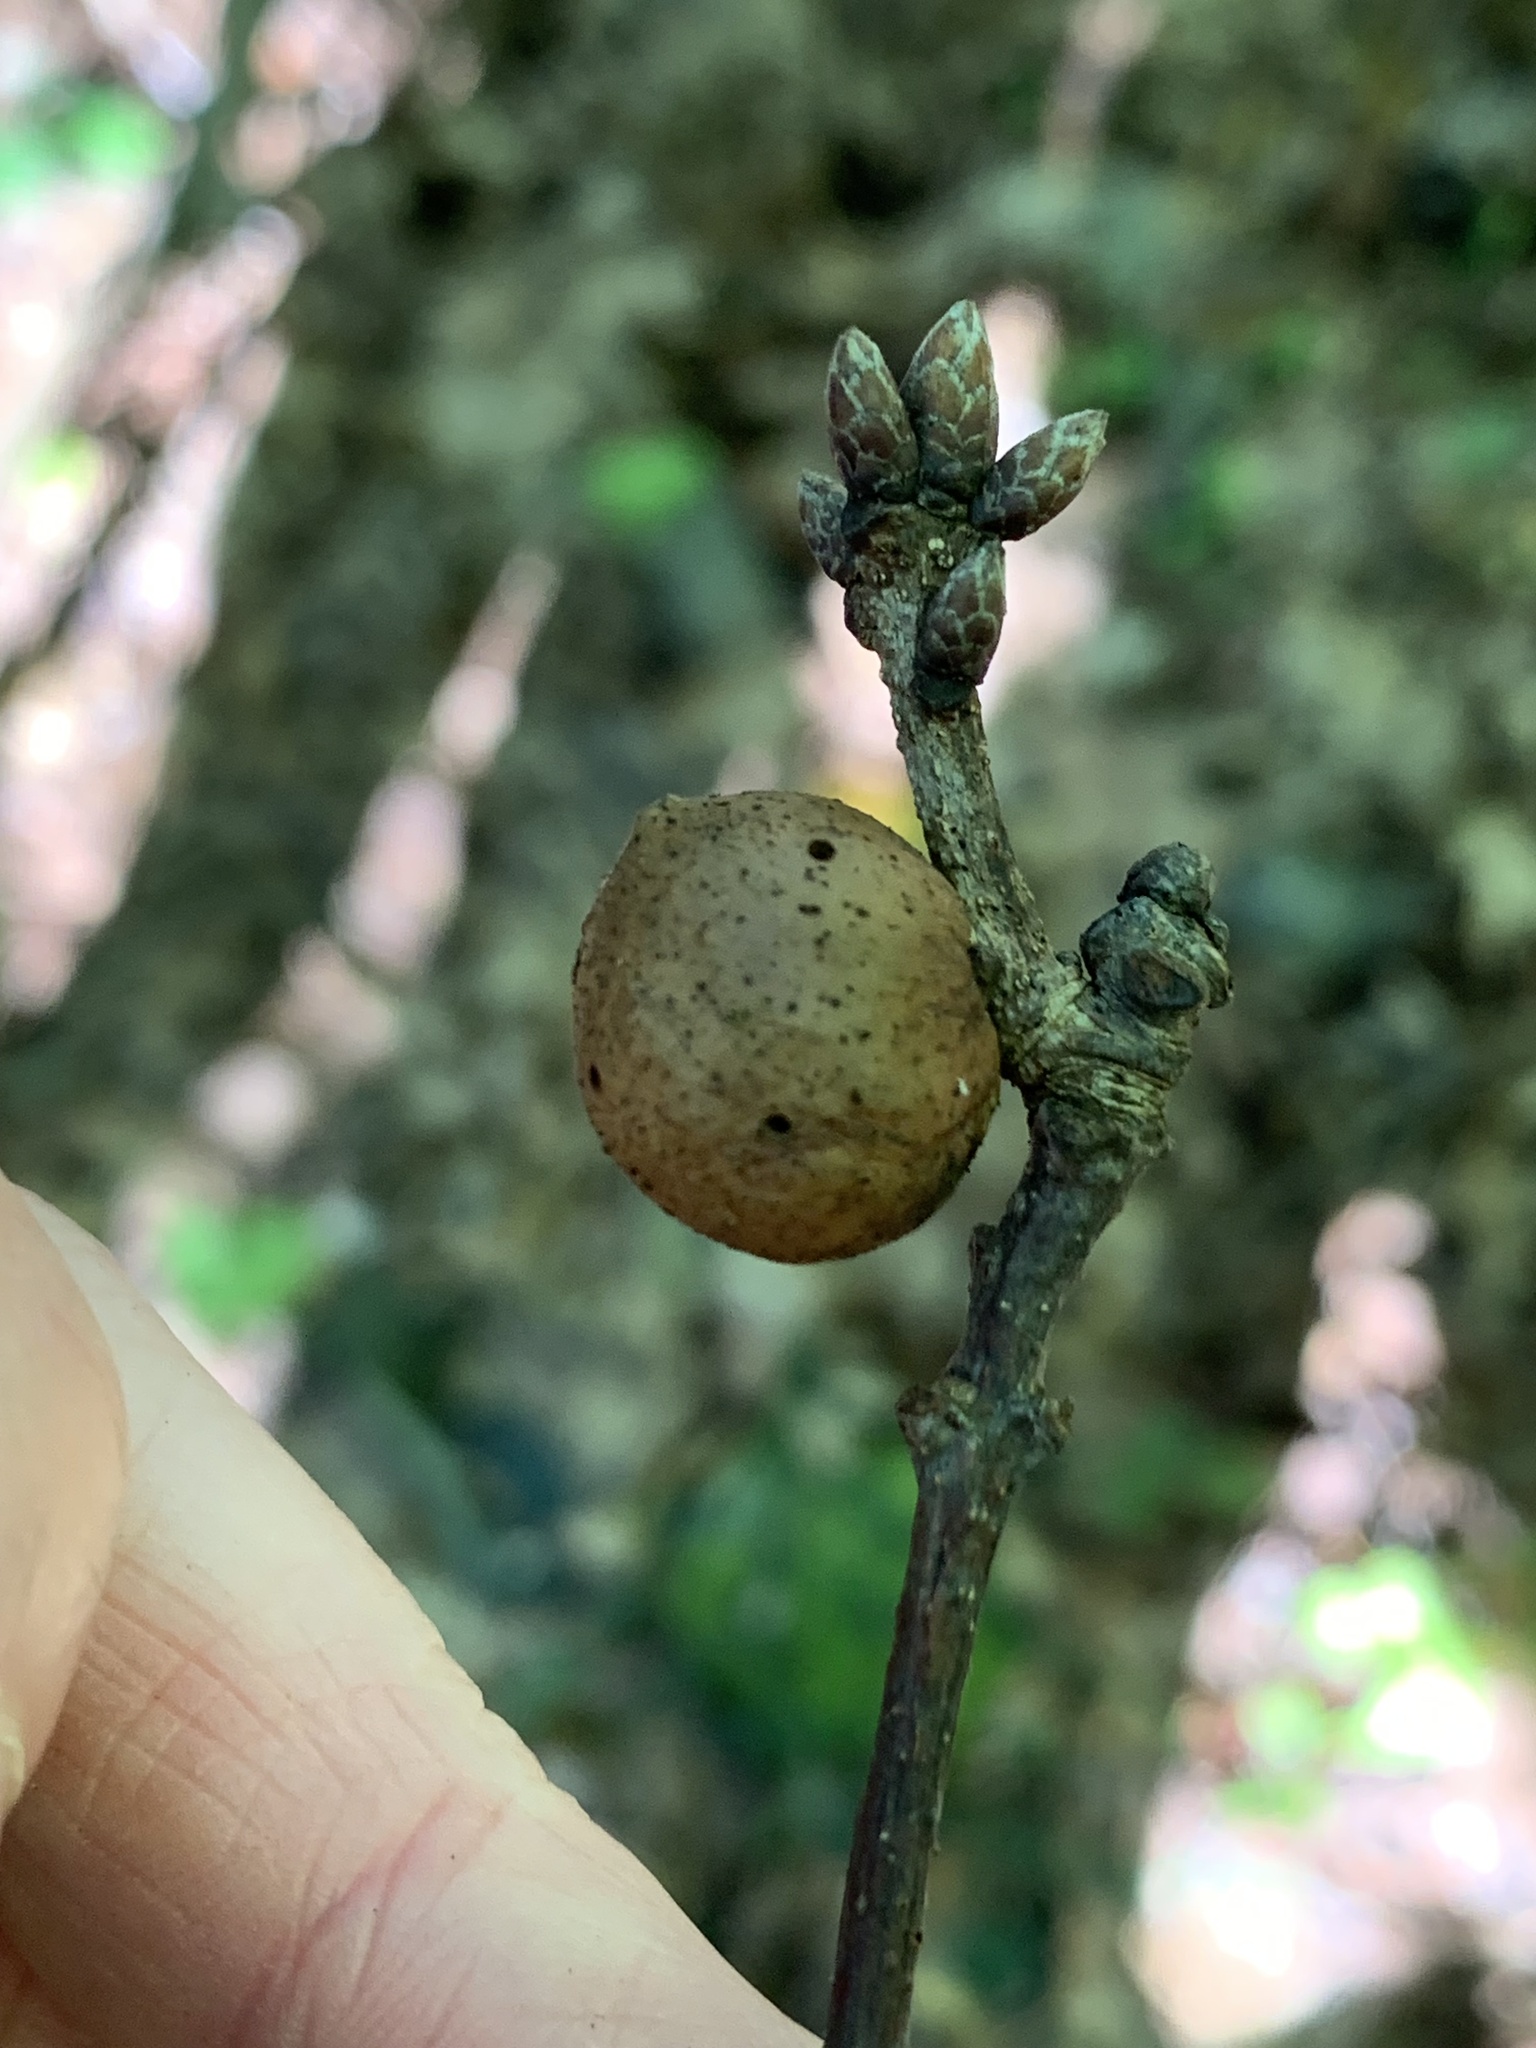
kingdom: Animalia
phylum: Arthropoda
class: Insecta
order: Hymenoptera
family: Cynipidae
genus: Disholcaspis
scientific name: Disholcaspis quercusglobulus
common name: Round bullet gall wasp
